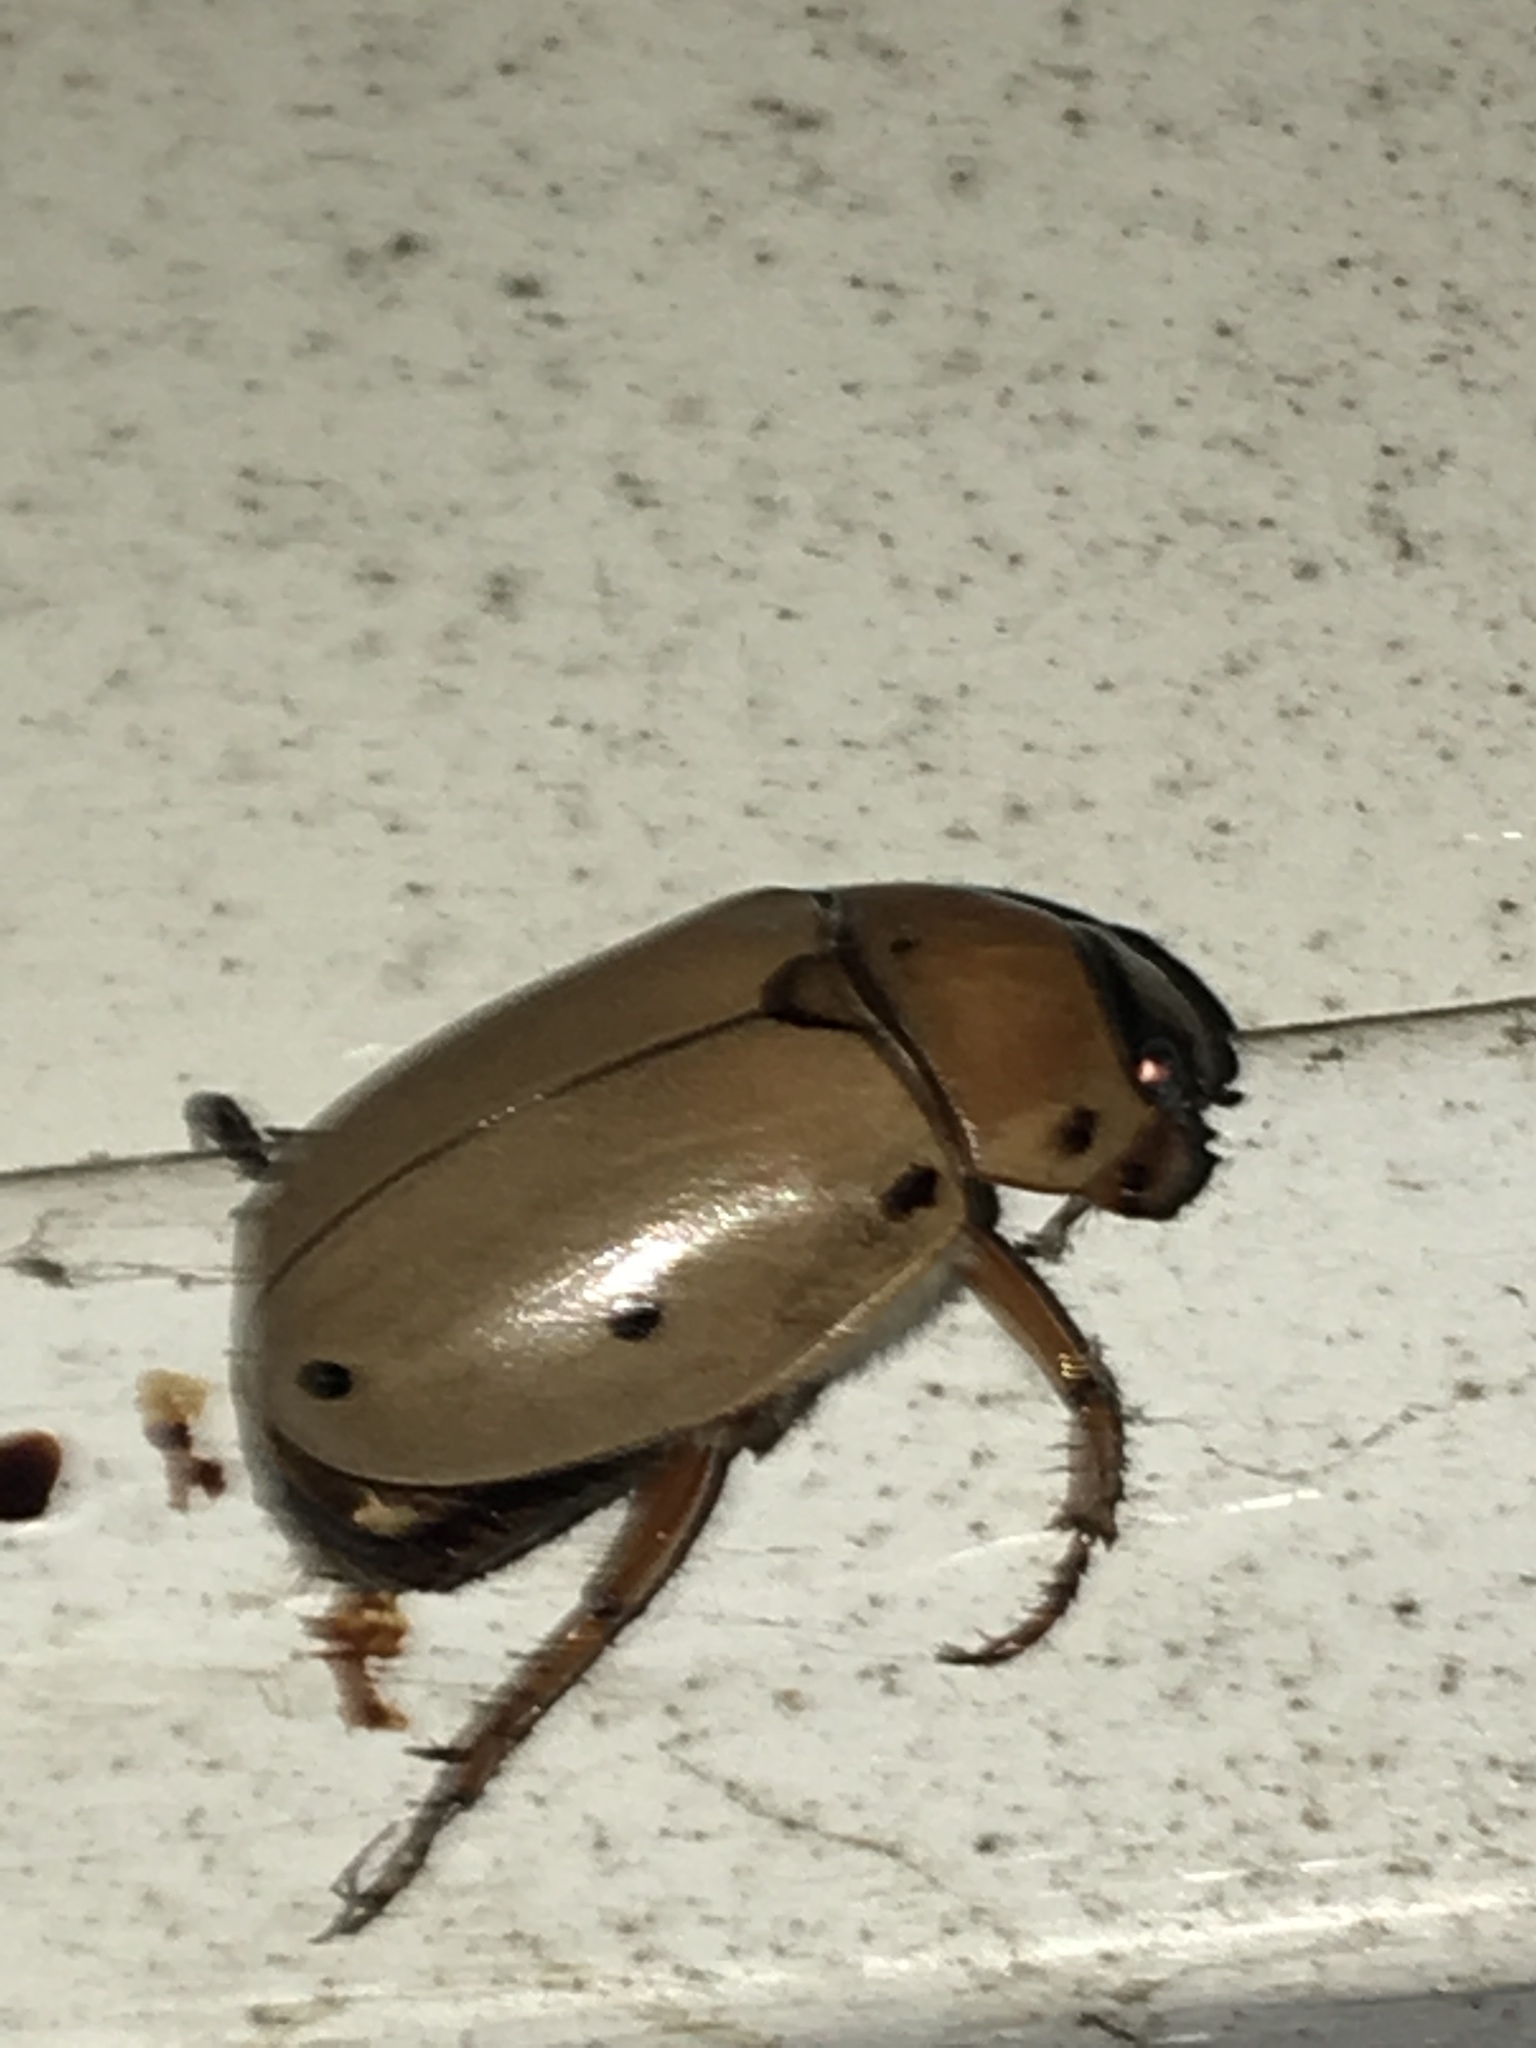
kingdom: Animalia
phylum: Arthropoda
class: Insecta
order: Coleoptera
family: Scarabaeidae
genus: Pelidnota
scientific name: Pelidnota punctata
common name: Grapevine beetle
